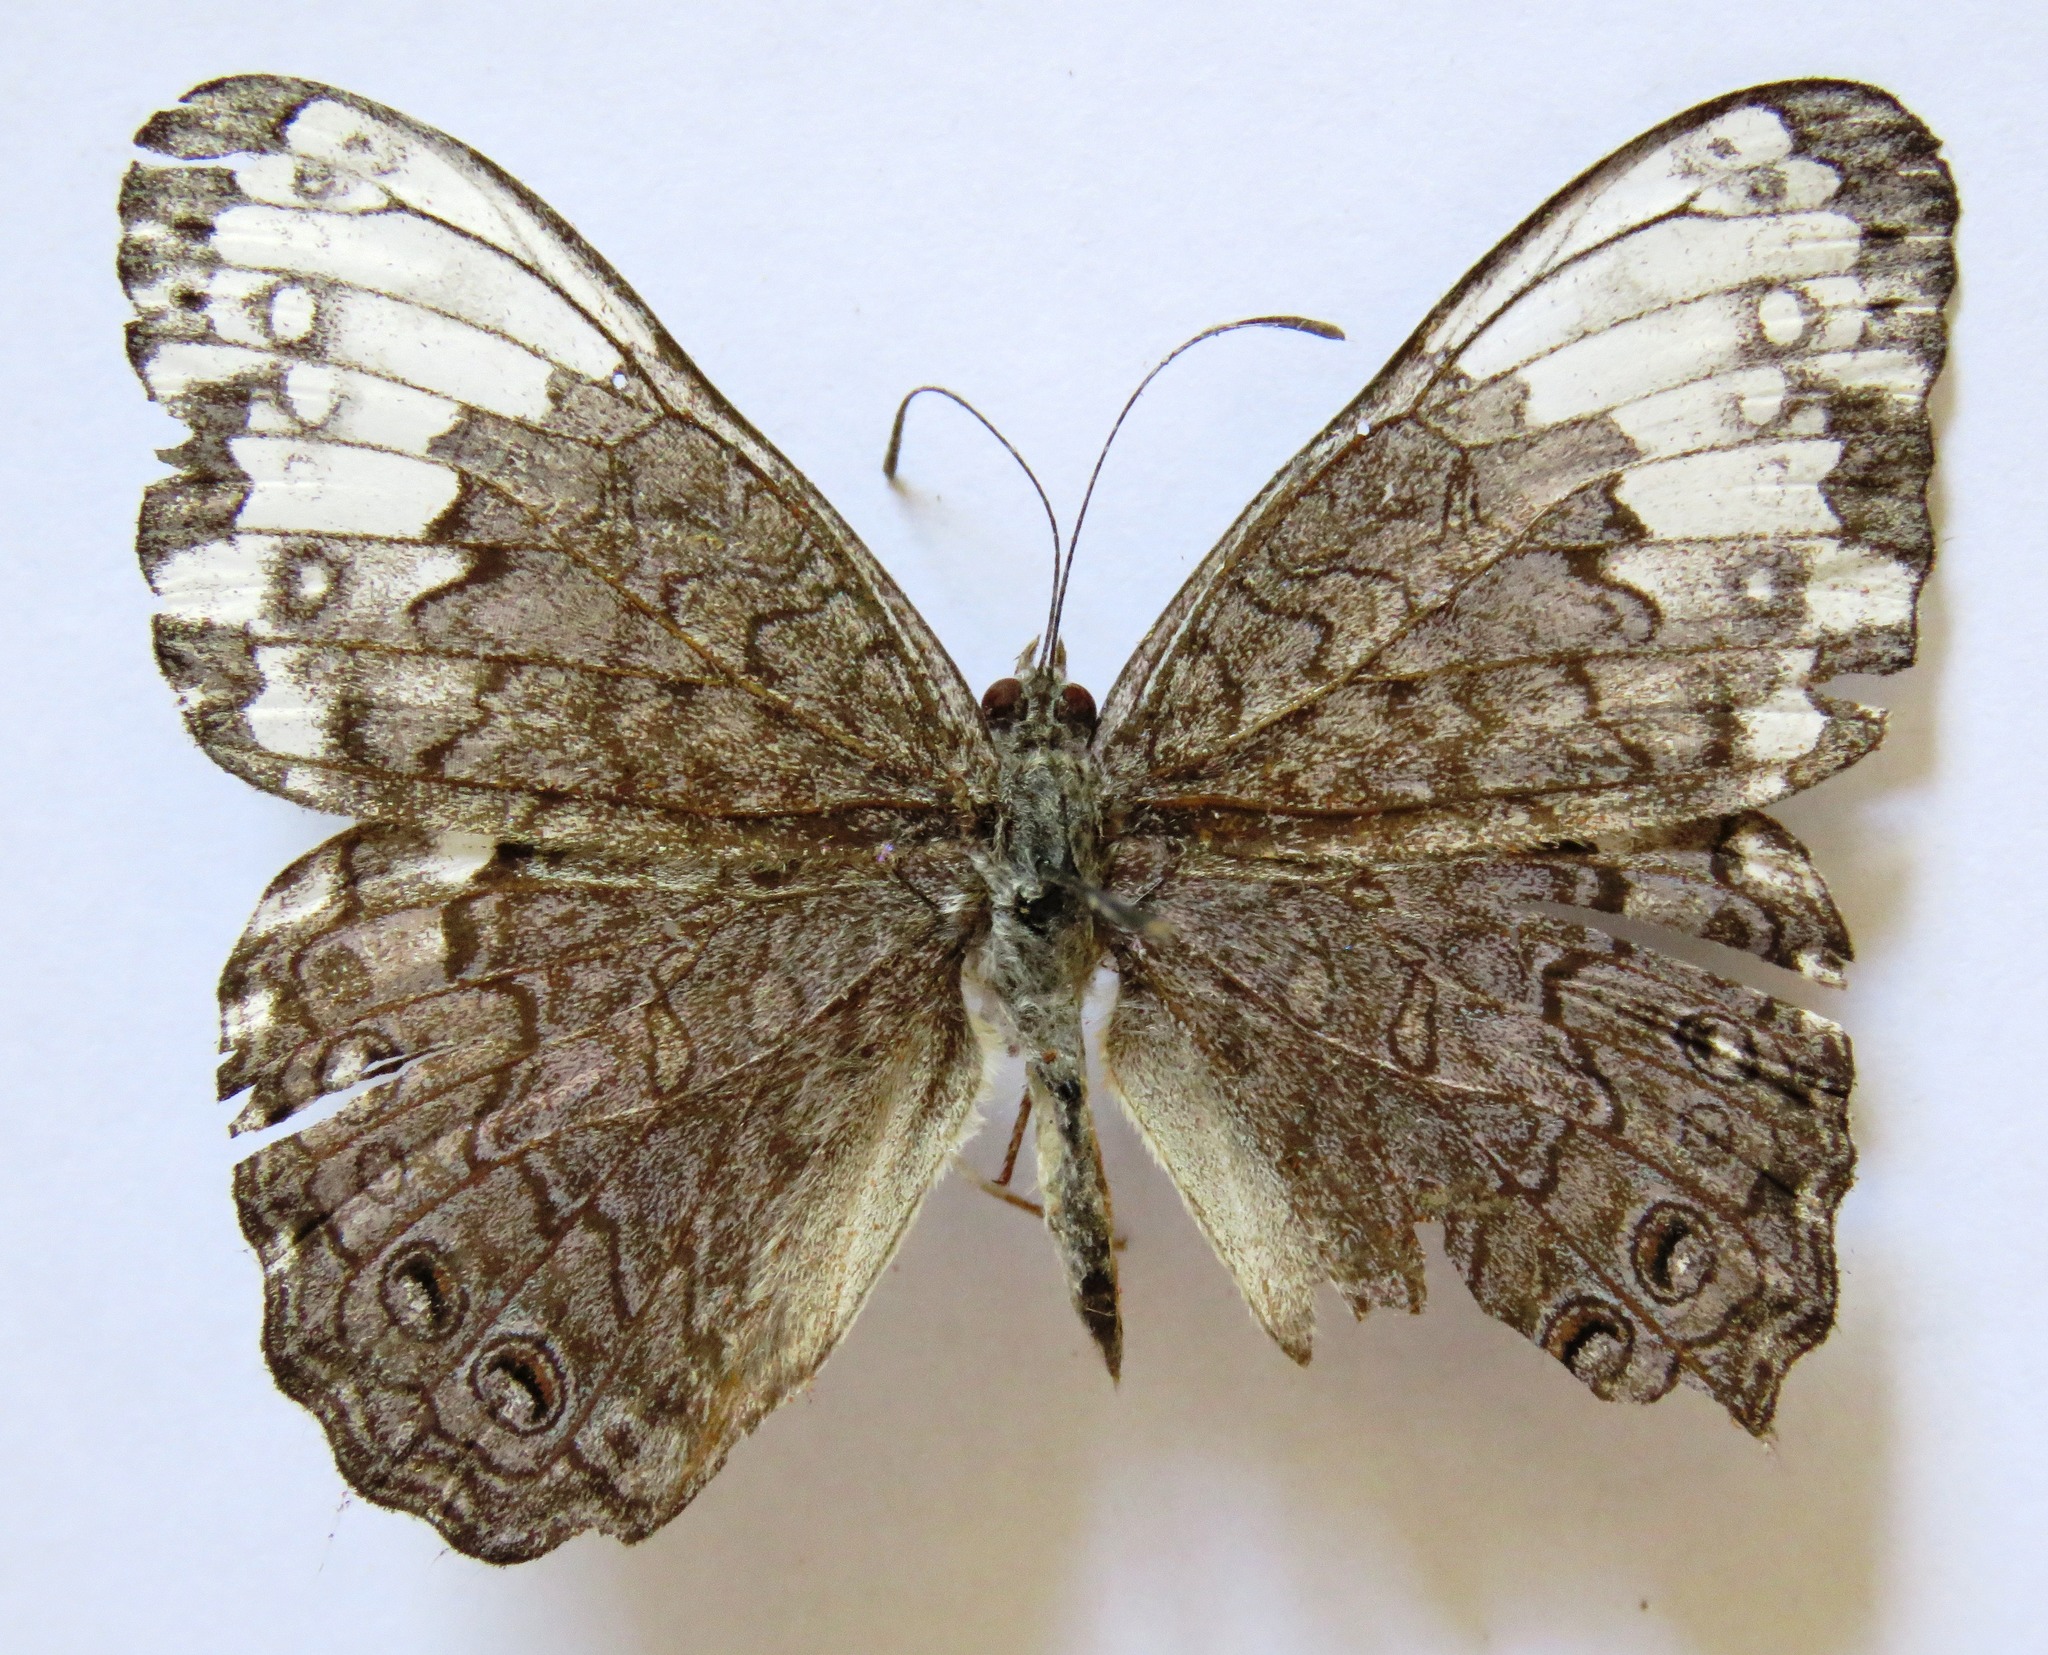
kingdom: Animalia
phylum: Arthropoda
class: Insecta
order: Lepidoptera
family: Nymphalidae
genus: Hamadryas
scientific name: Hamadryas glauconome
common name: Glaucous cracker
